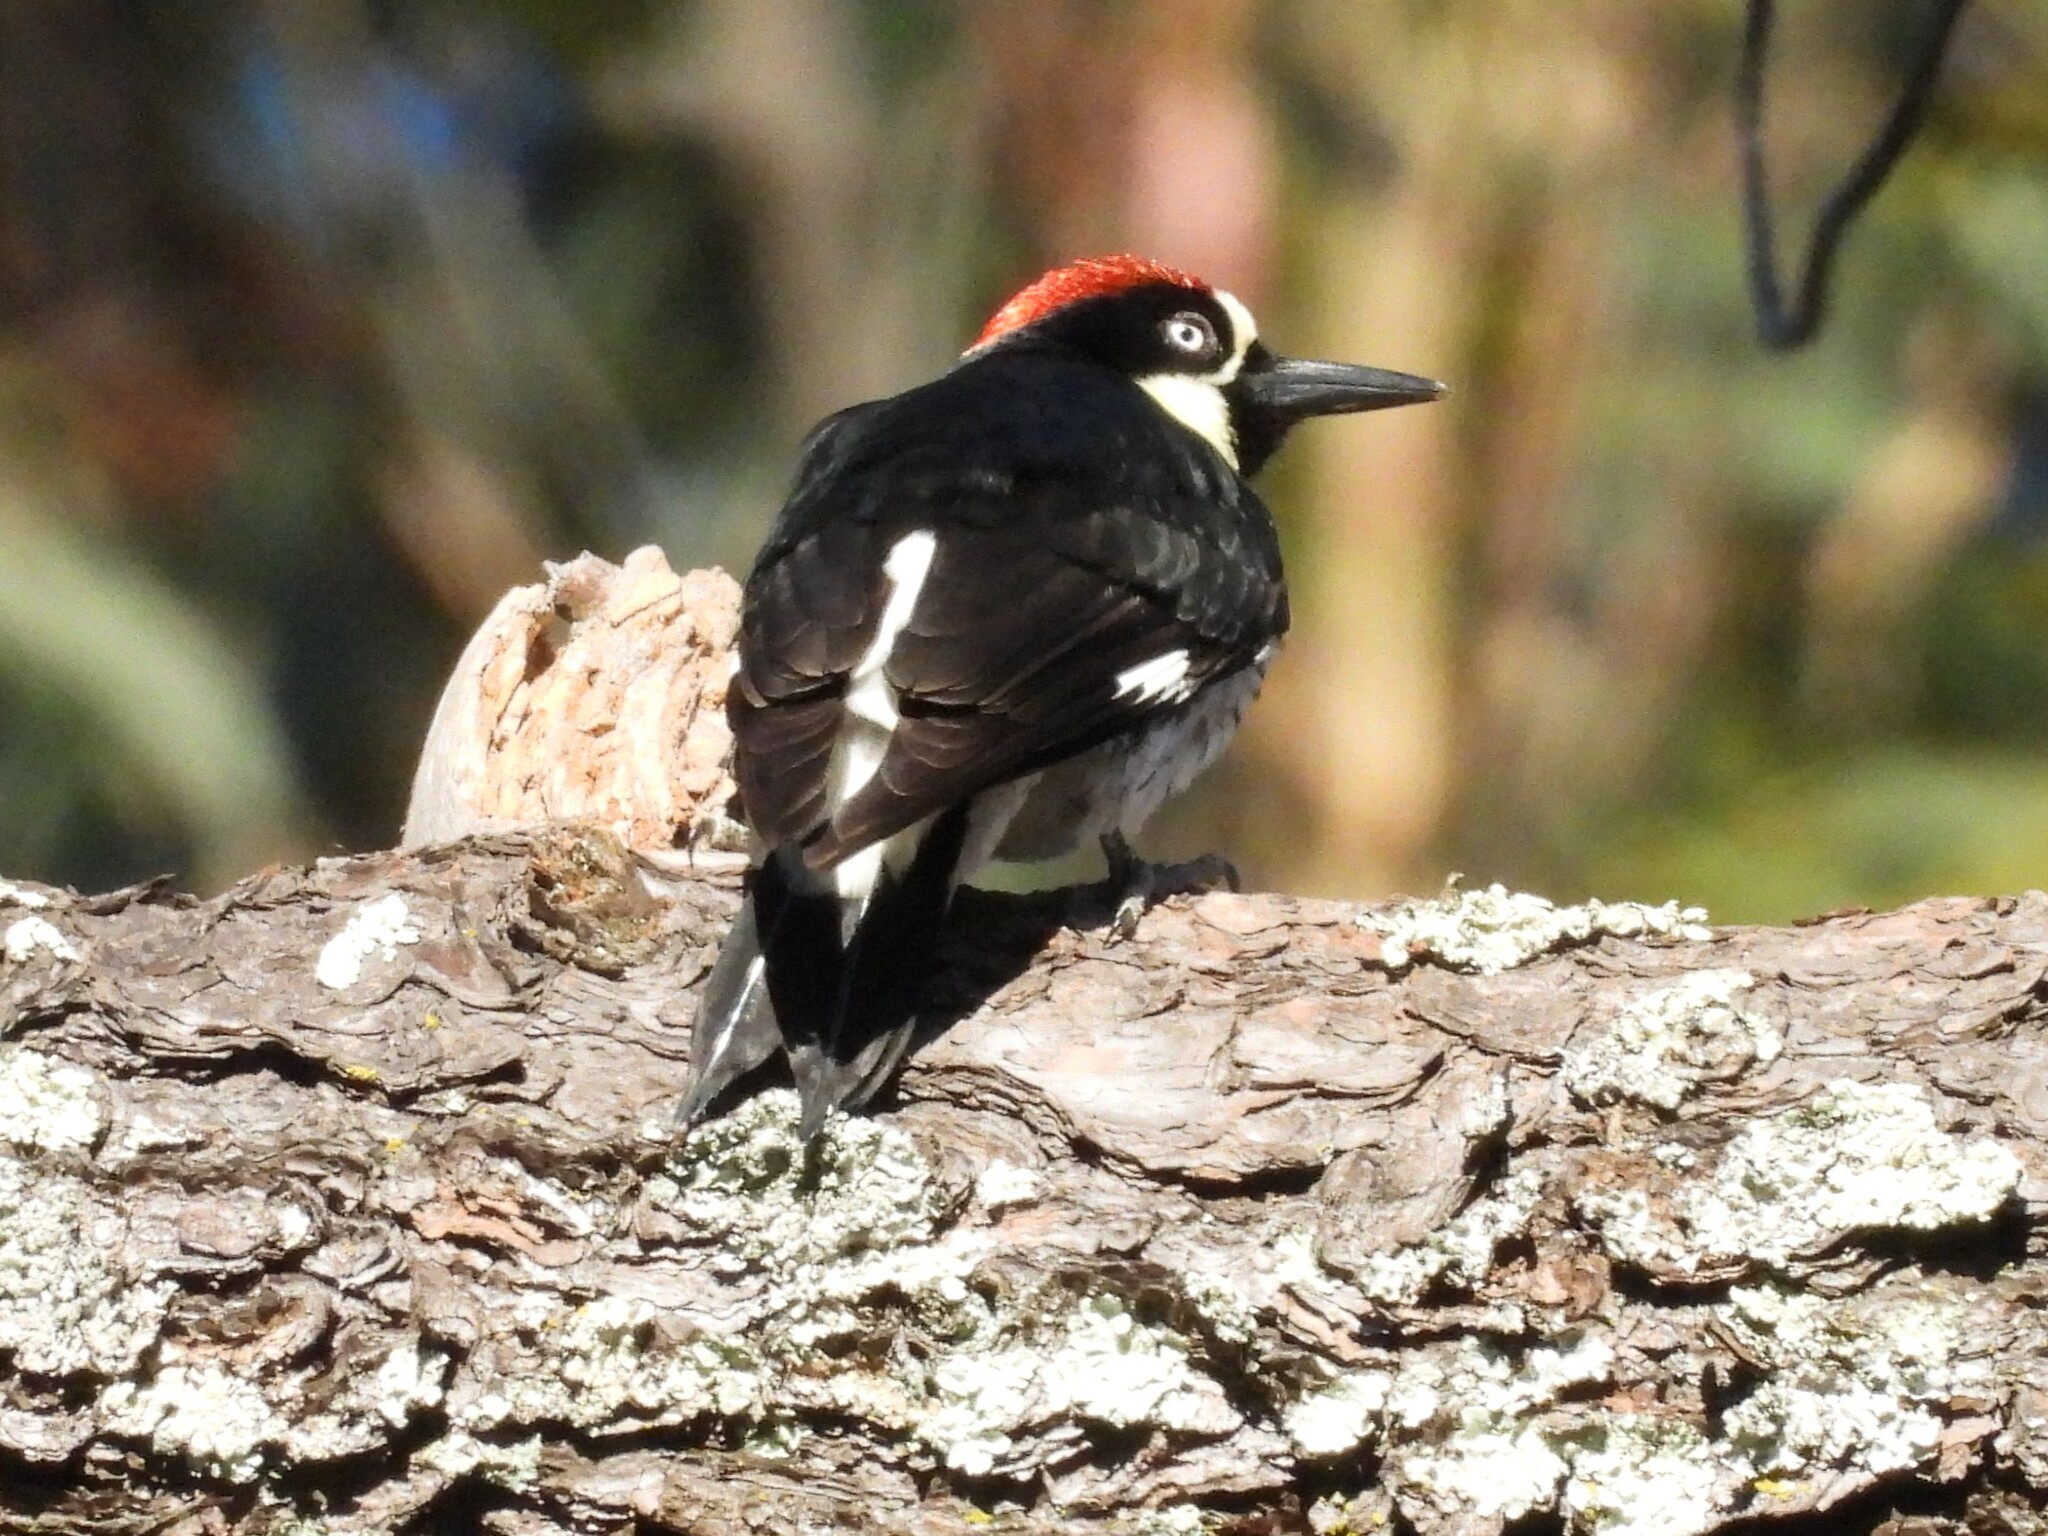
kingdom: Animalia
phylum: Chordata
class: Aves
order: Piciformes
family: Picidae
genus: Melanerpes
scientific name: Melanerpes formicivorus
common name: Acorn woodpecker
